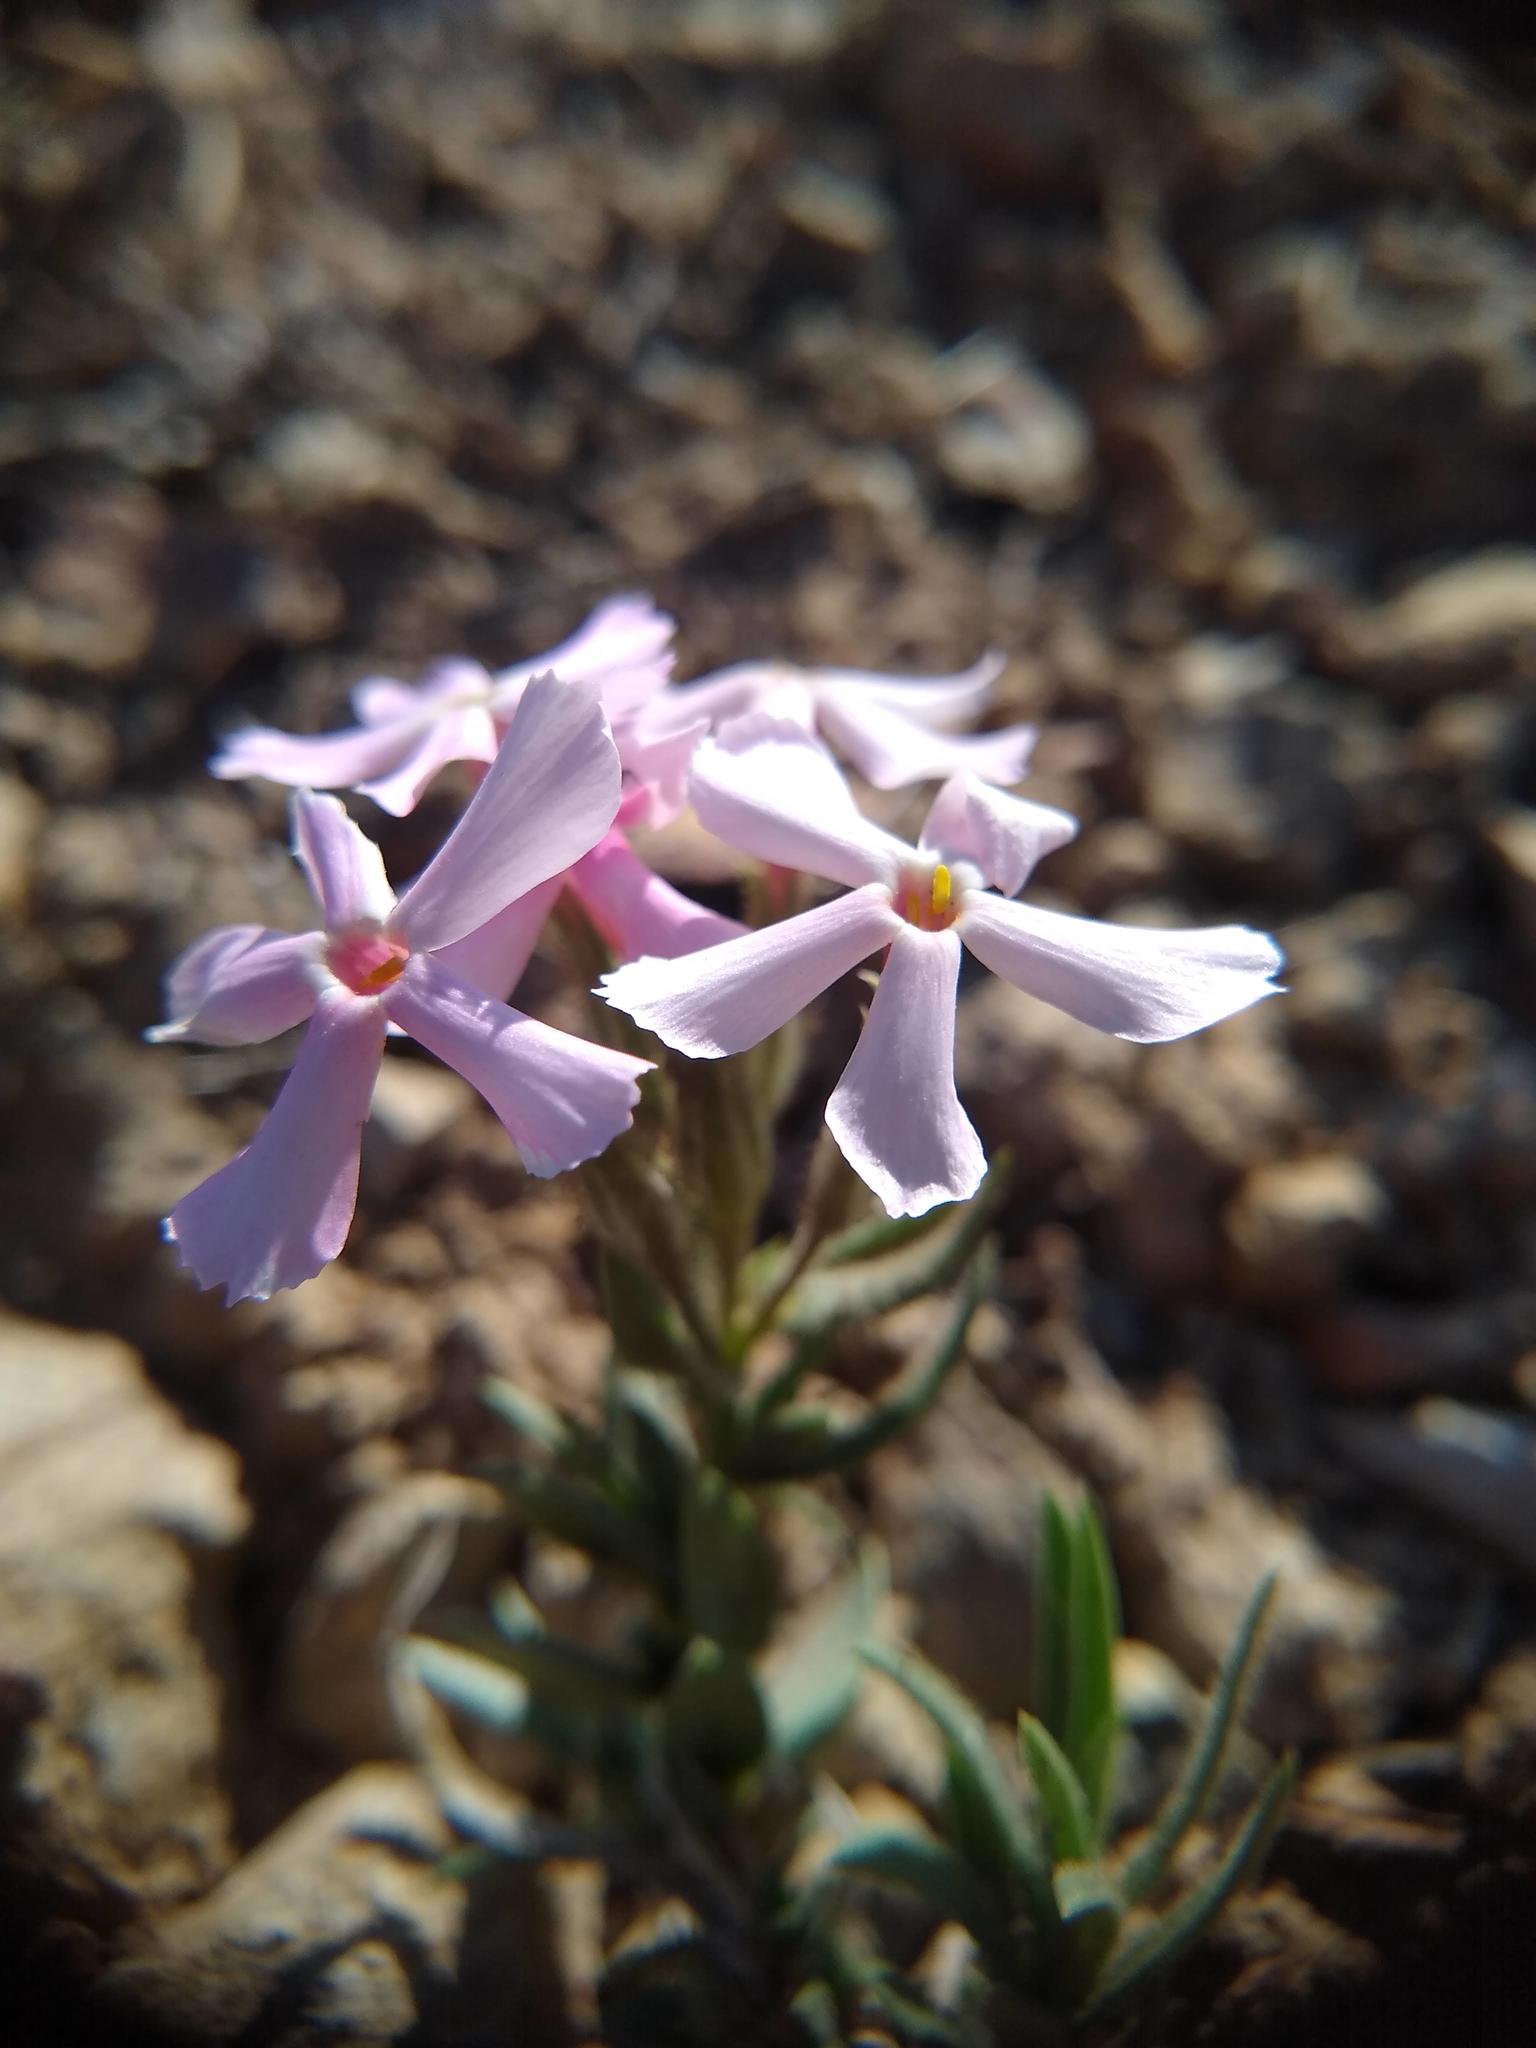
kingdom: Plantae
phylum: Tracheophyta
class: Magnoliopsida
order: Ericales
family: Polemoniaceae
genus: Phlox
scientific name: Phlox longifolia
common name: Longleaf phlox
